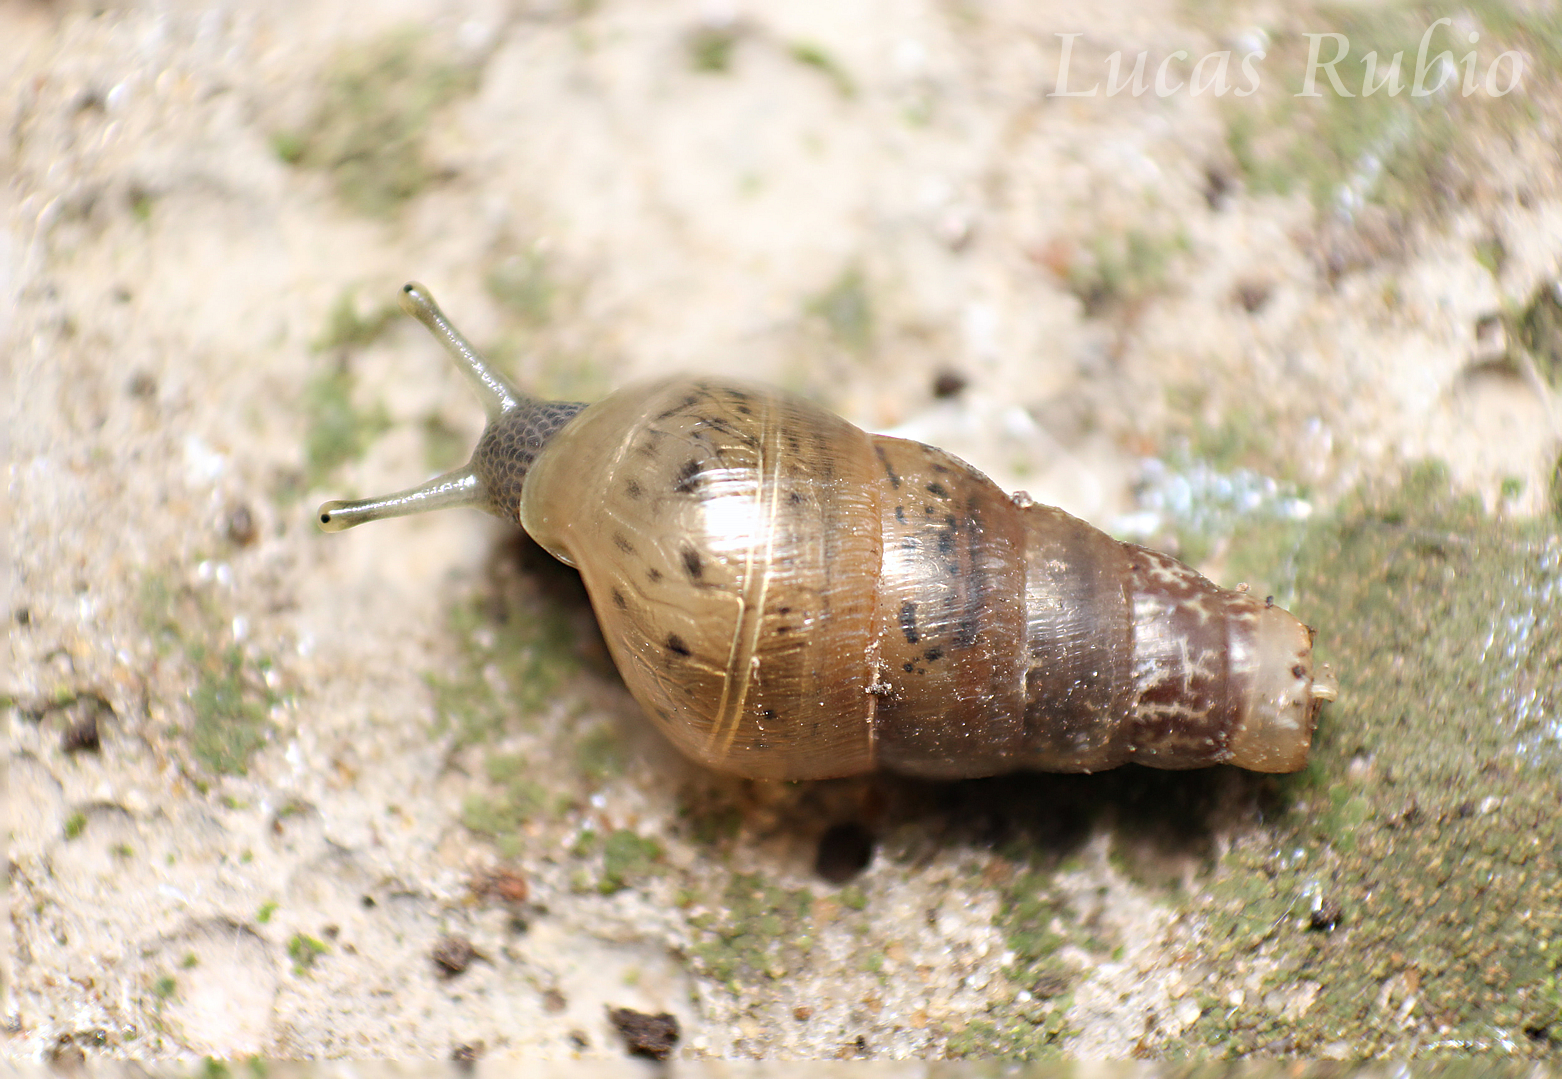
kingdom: Animalia
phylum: Mollusca
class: Gastropoda
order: Stylommatophora
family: Achatinidae
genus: Rumina
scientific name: Rumina decollata
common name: Decollate snail
